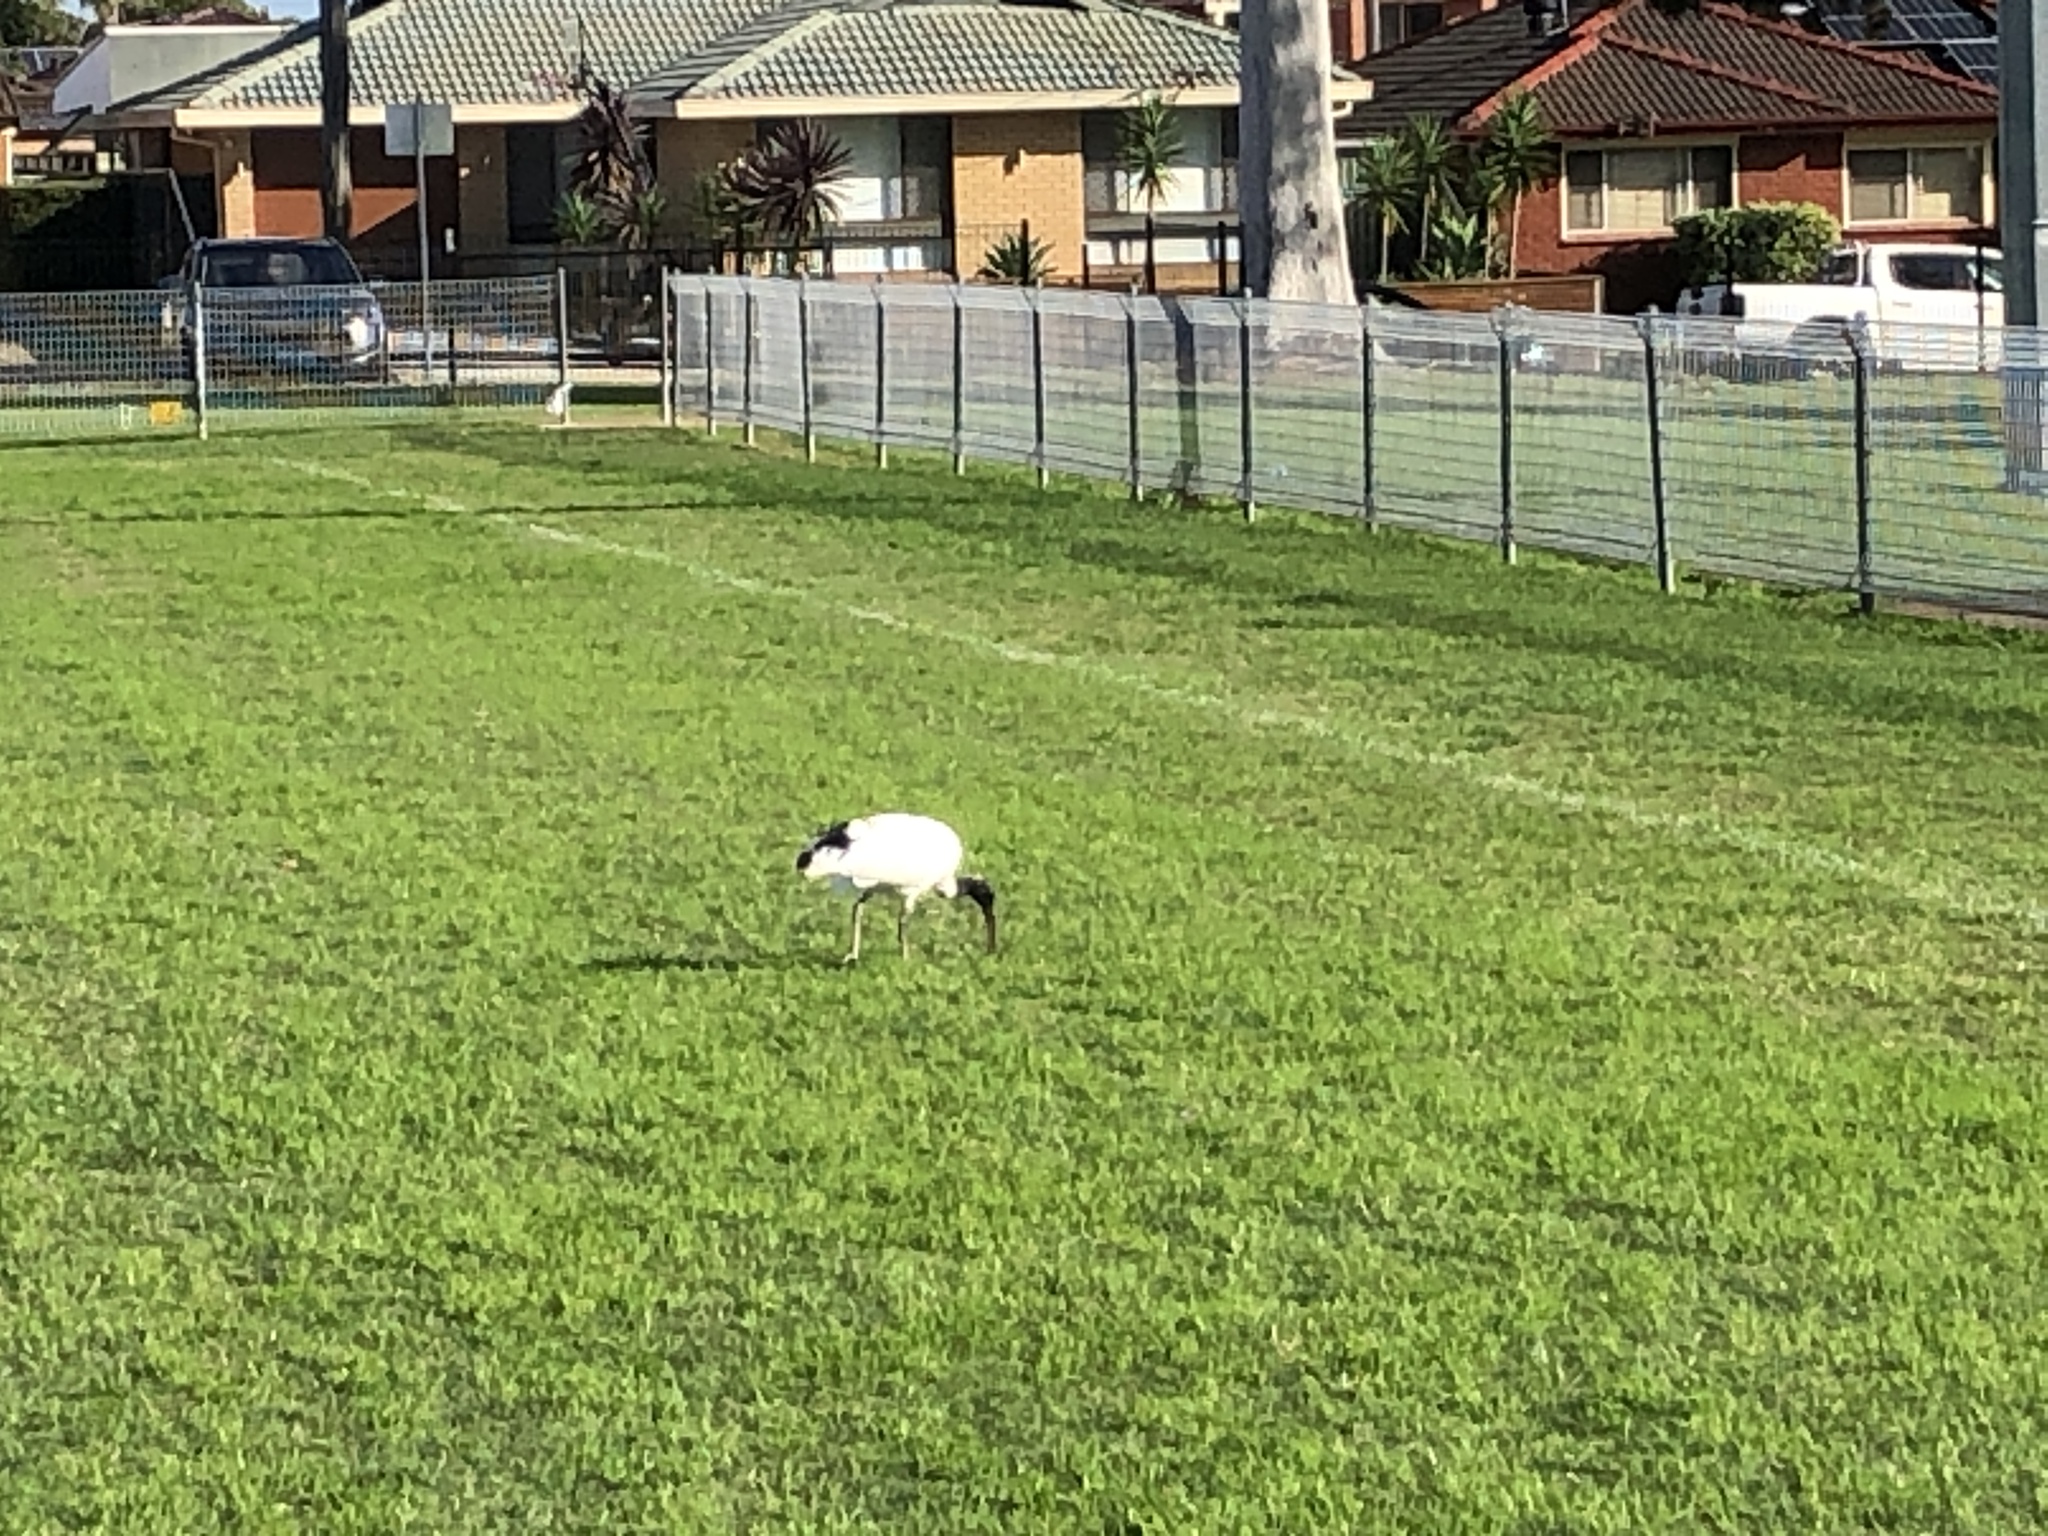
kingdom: Animalia
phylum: Chordata
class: Aves
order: Pelecaniformes
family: Threskiornithidae
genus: Threskiornis
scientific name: Threskiornis molucca
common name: Australian white ibis
